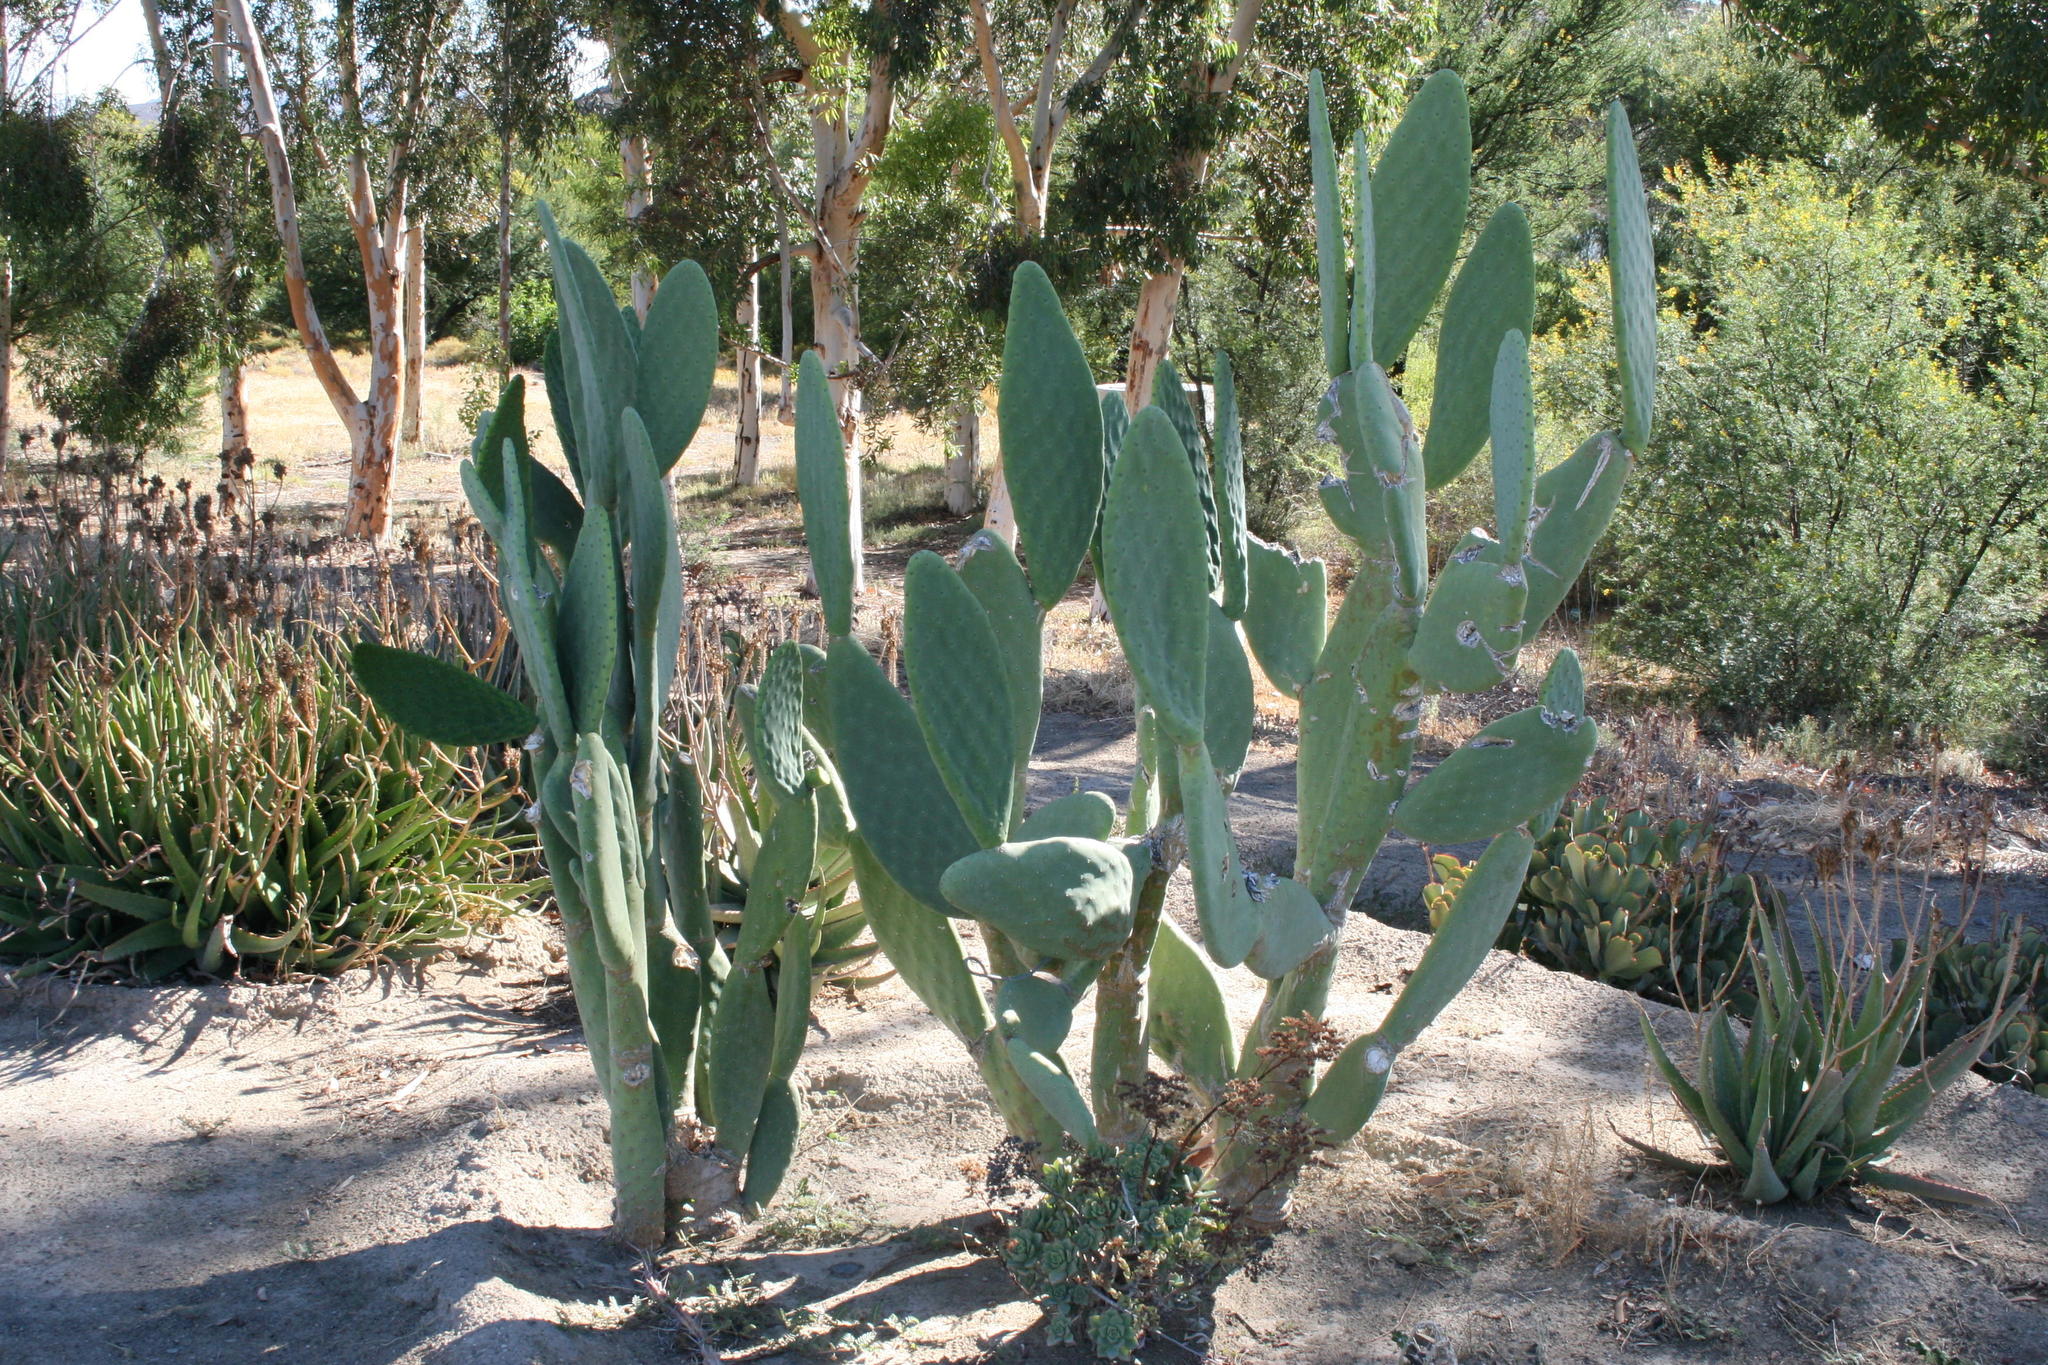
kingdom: Plantae
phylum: Tracheophyta
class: Magnoliopsida
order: Caryophyllales
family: Cactaceae
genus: Opuntia
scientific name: Opuntia ficus-indica
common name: Barbary fig
